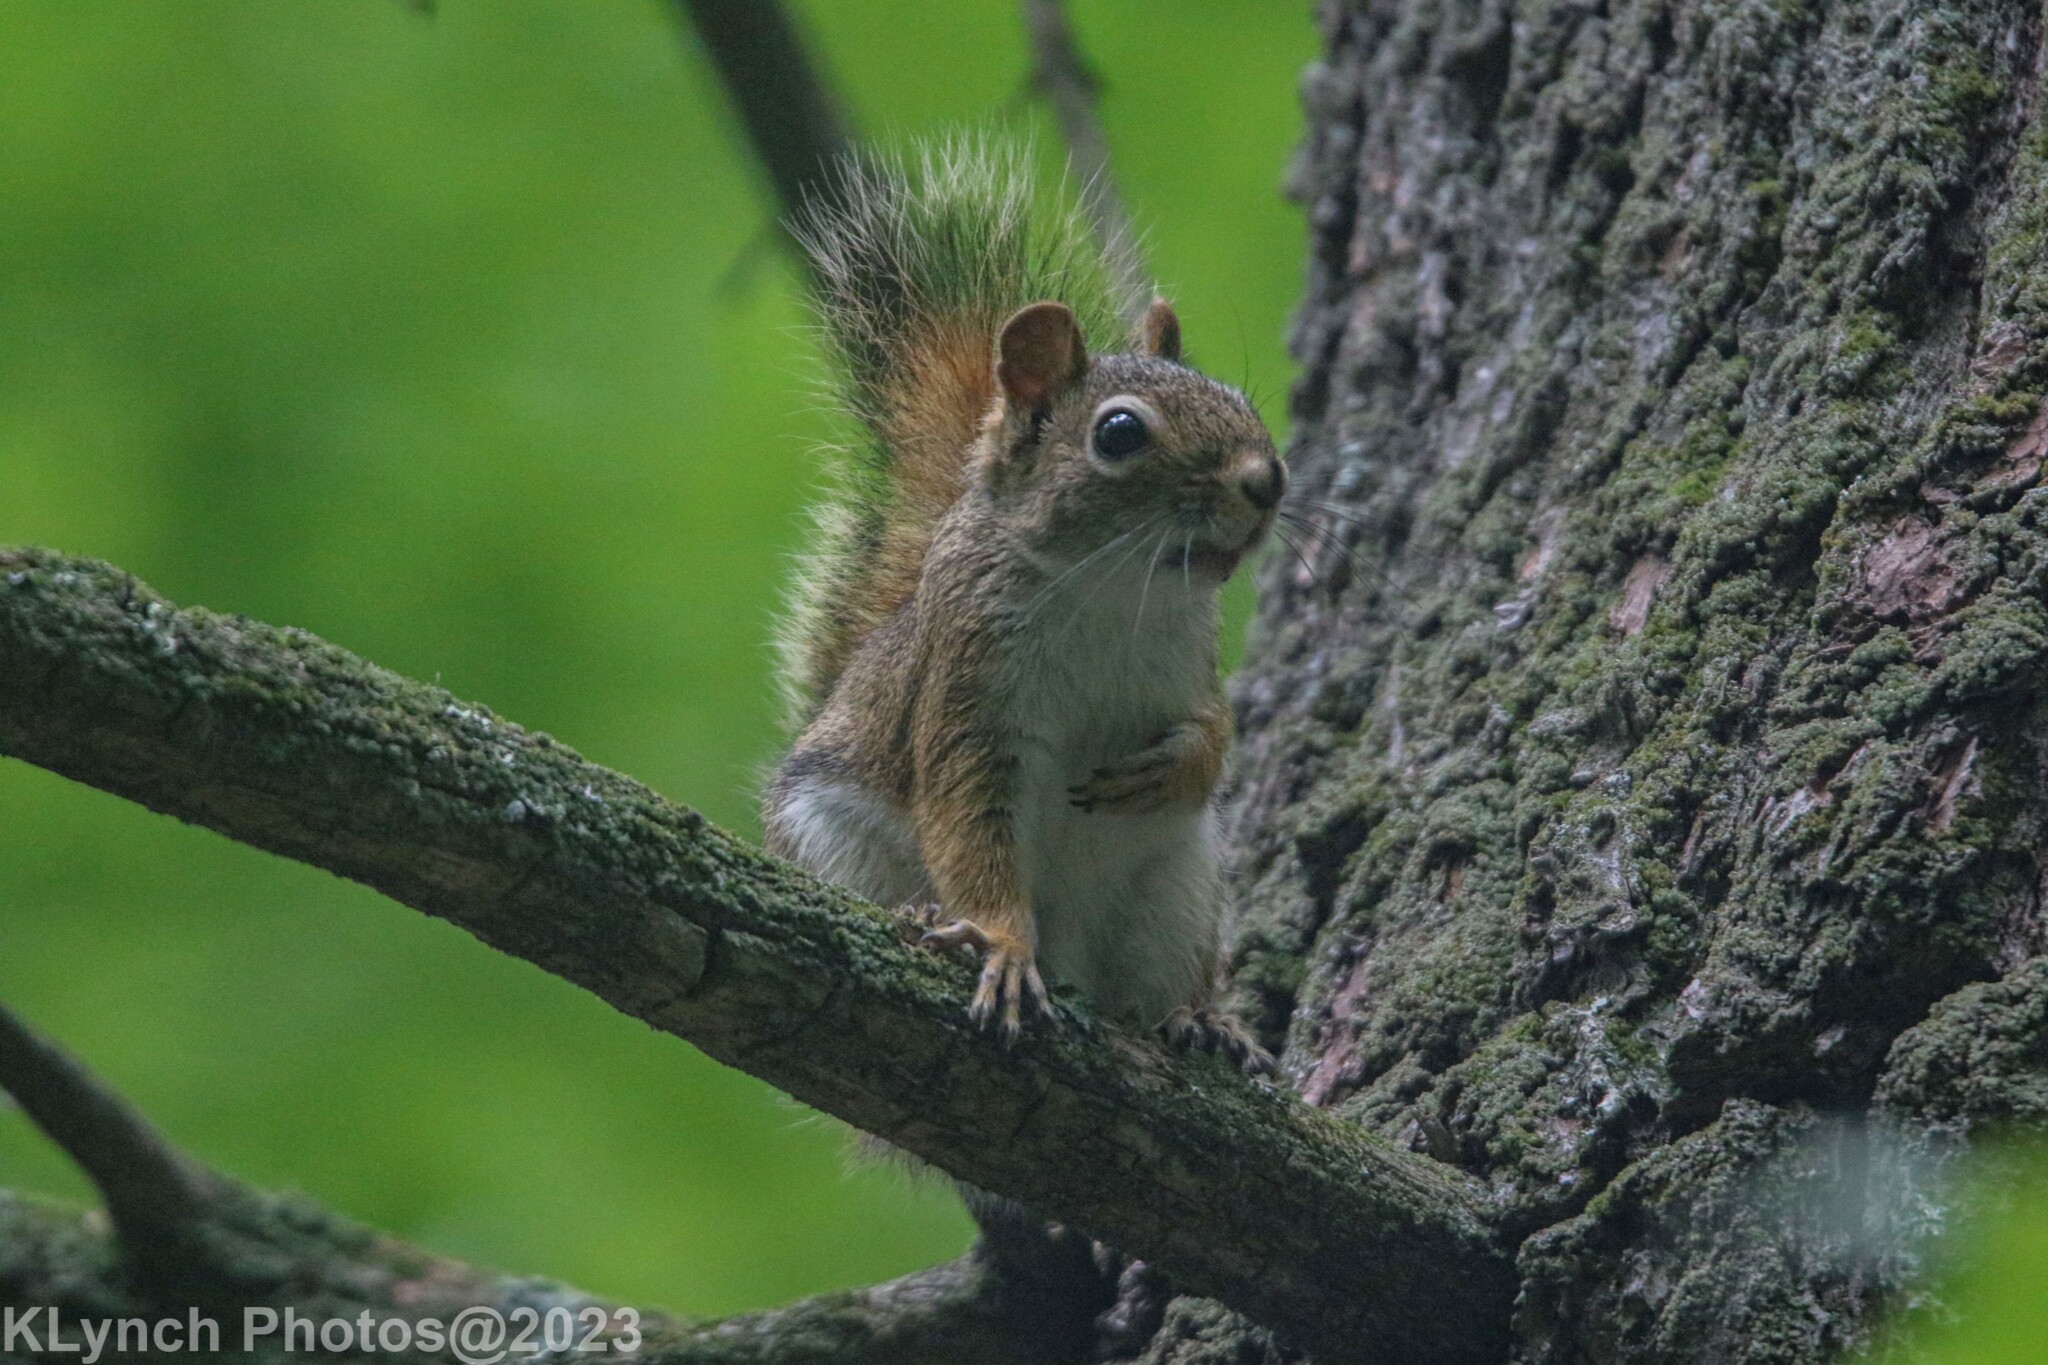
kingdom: Animalia
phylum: Chordata
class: Mammalia
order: Rodentia
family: Sciuridae
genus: Tamiasciurus
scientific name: Tamiasciurus hudsonicus
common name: Red squirrel
